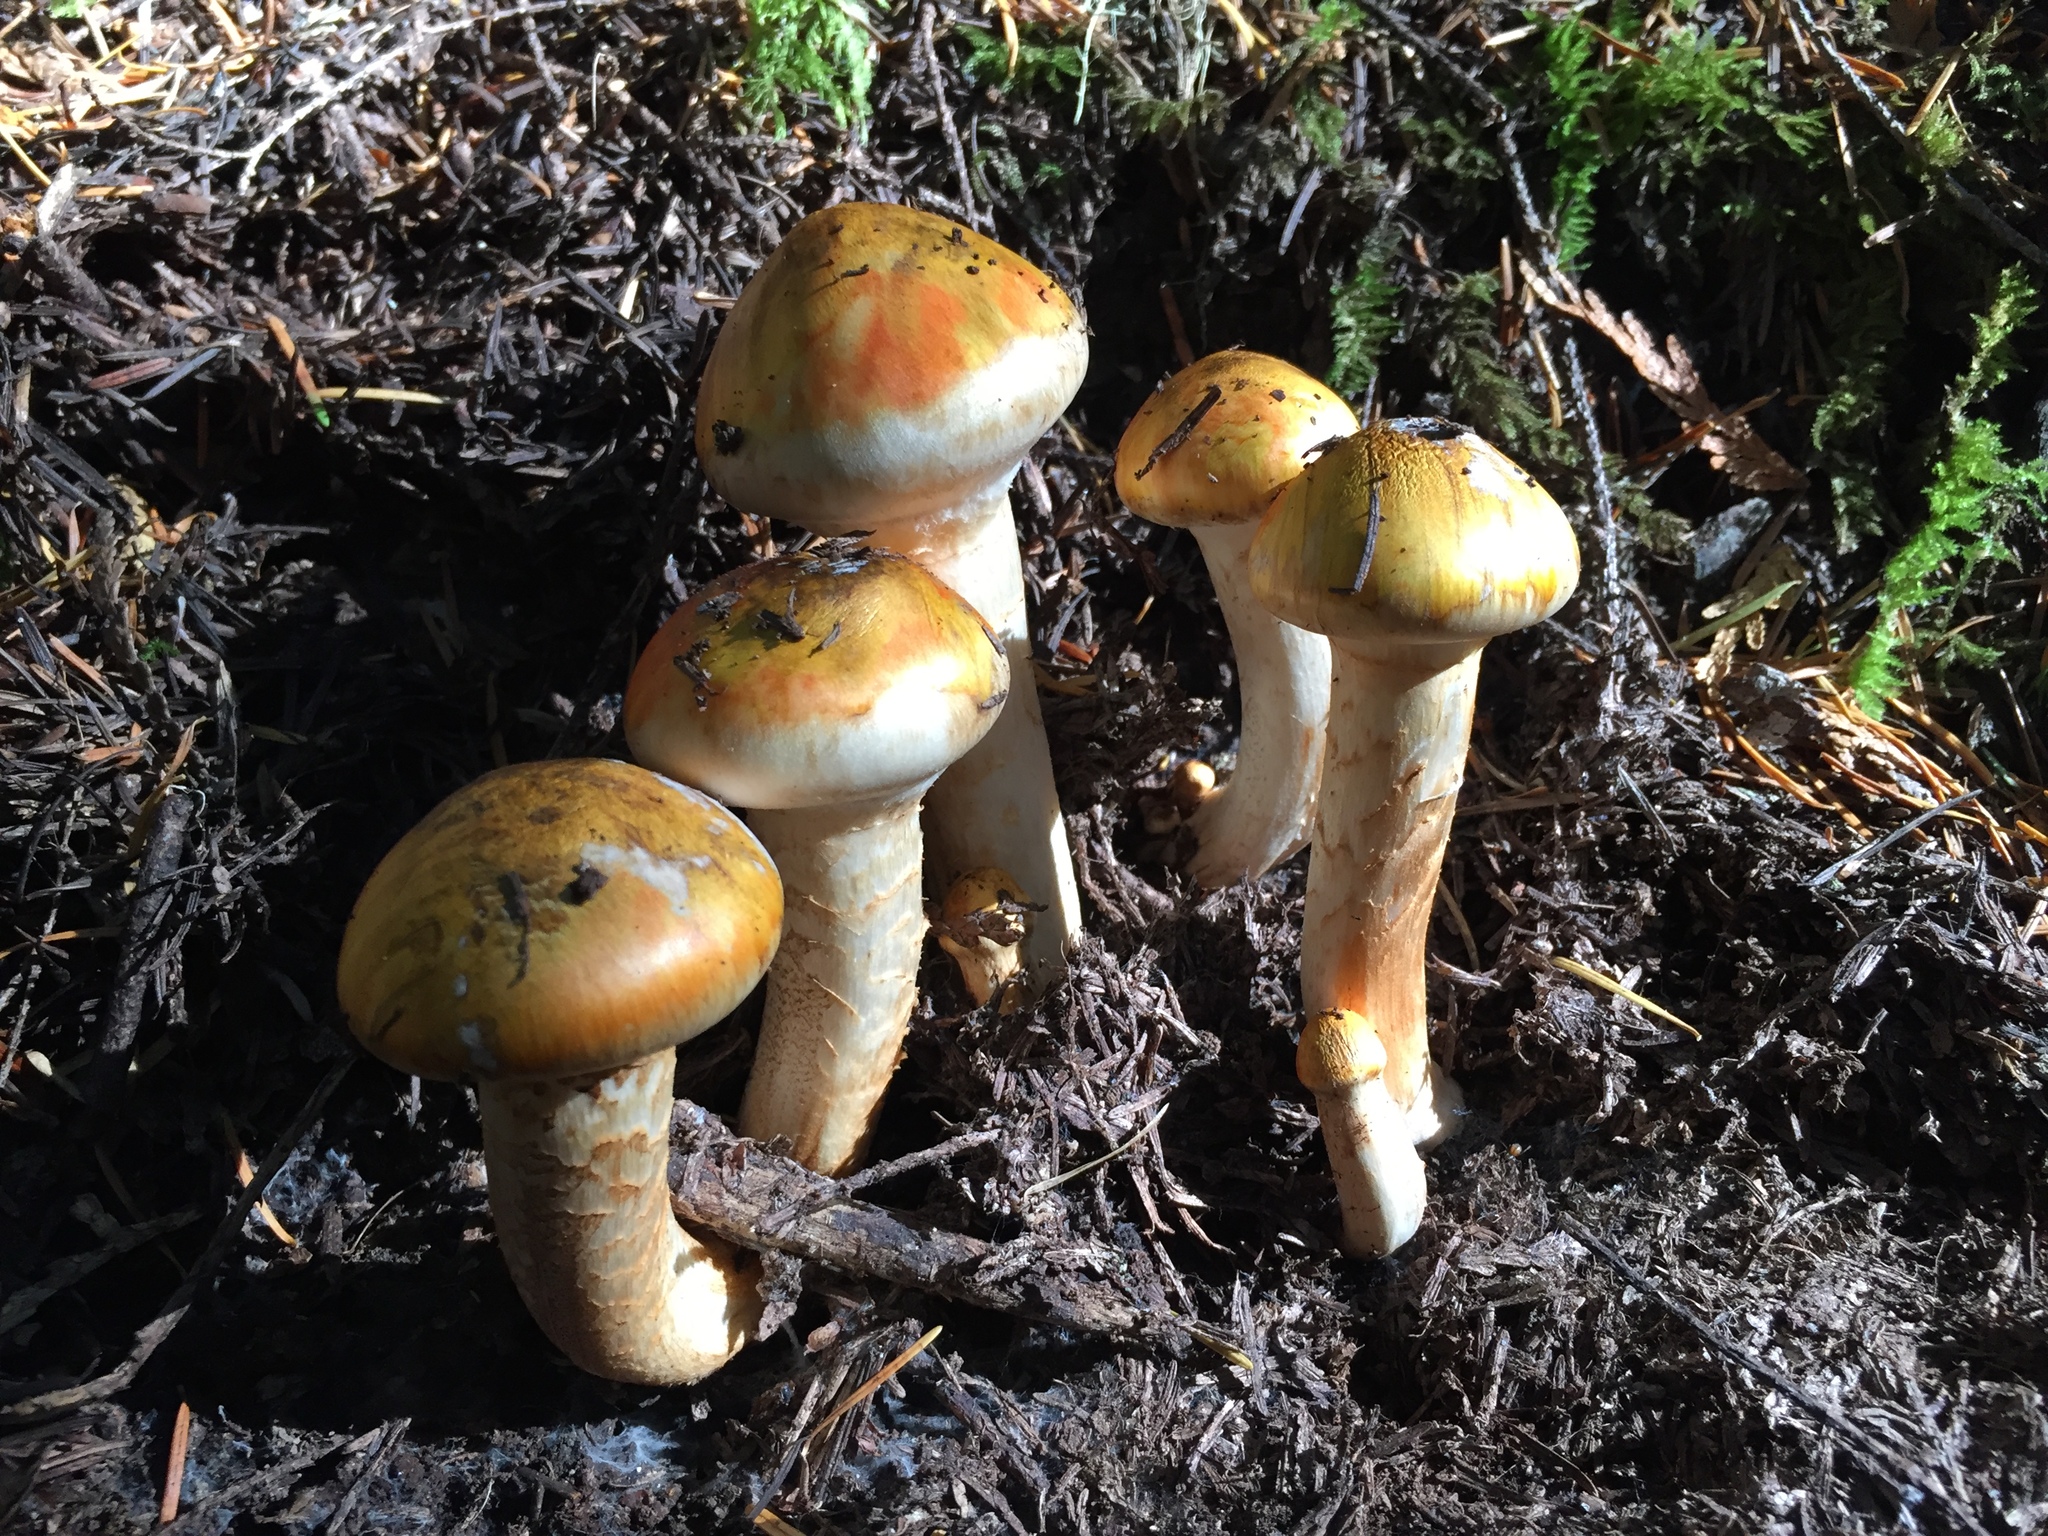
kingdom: Fungi
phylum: Basidiomycota
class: Agaricomycetes
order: Agaricales
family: Tricholomataceae
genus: Tricholoma
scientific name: Tricholoma focale
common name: Booted knight
